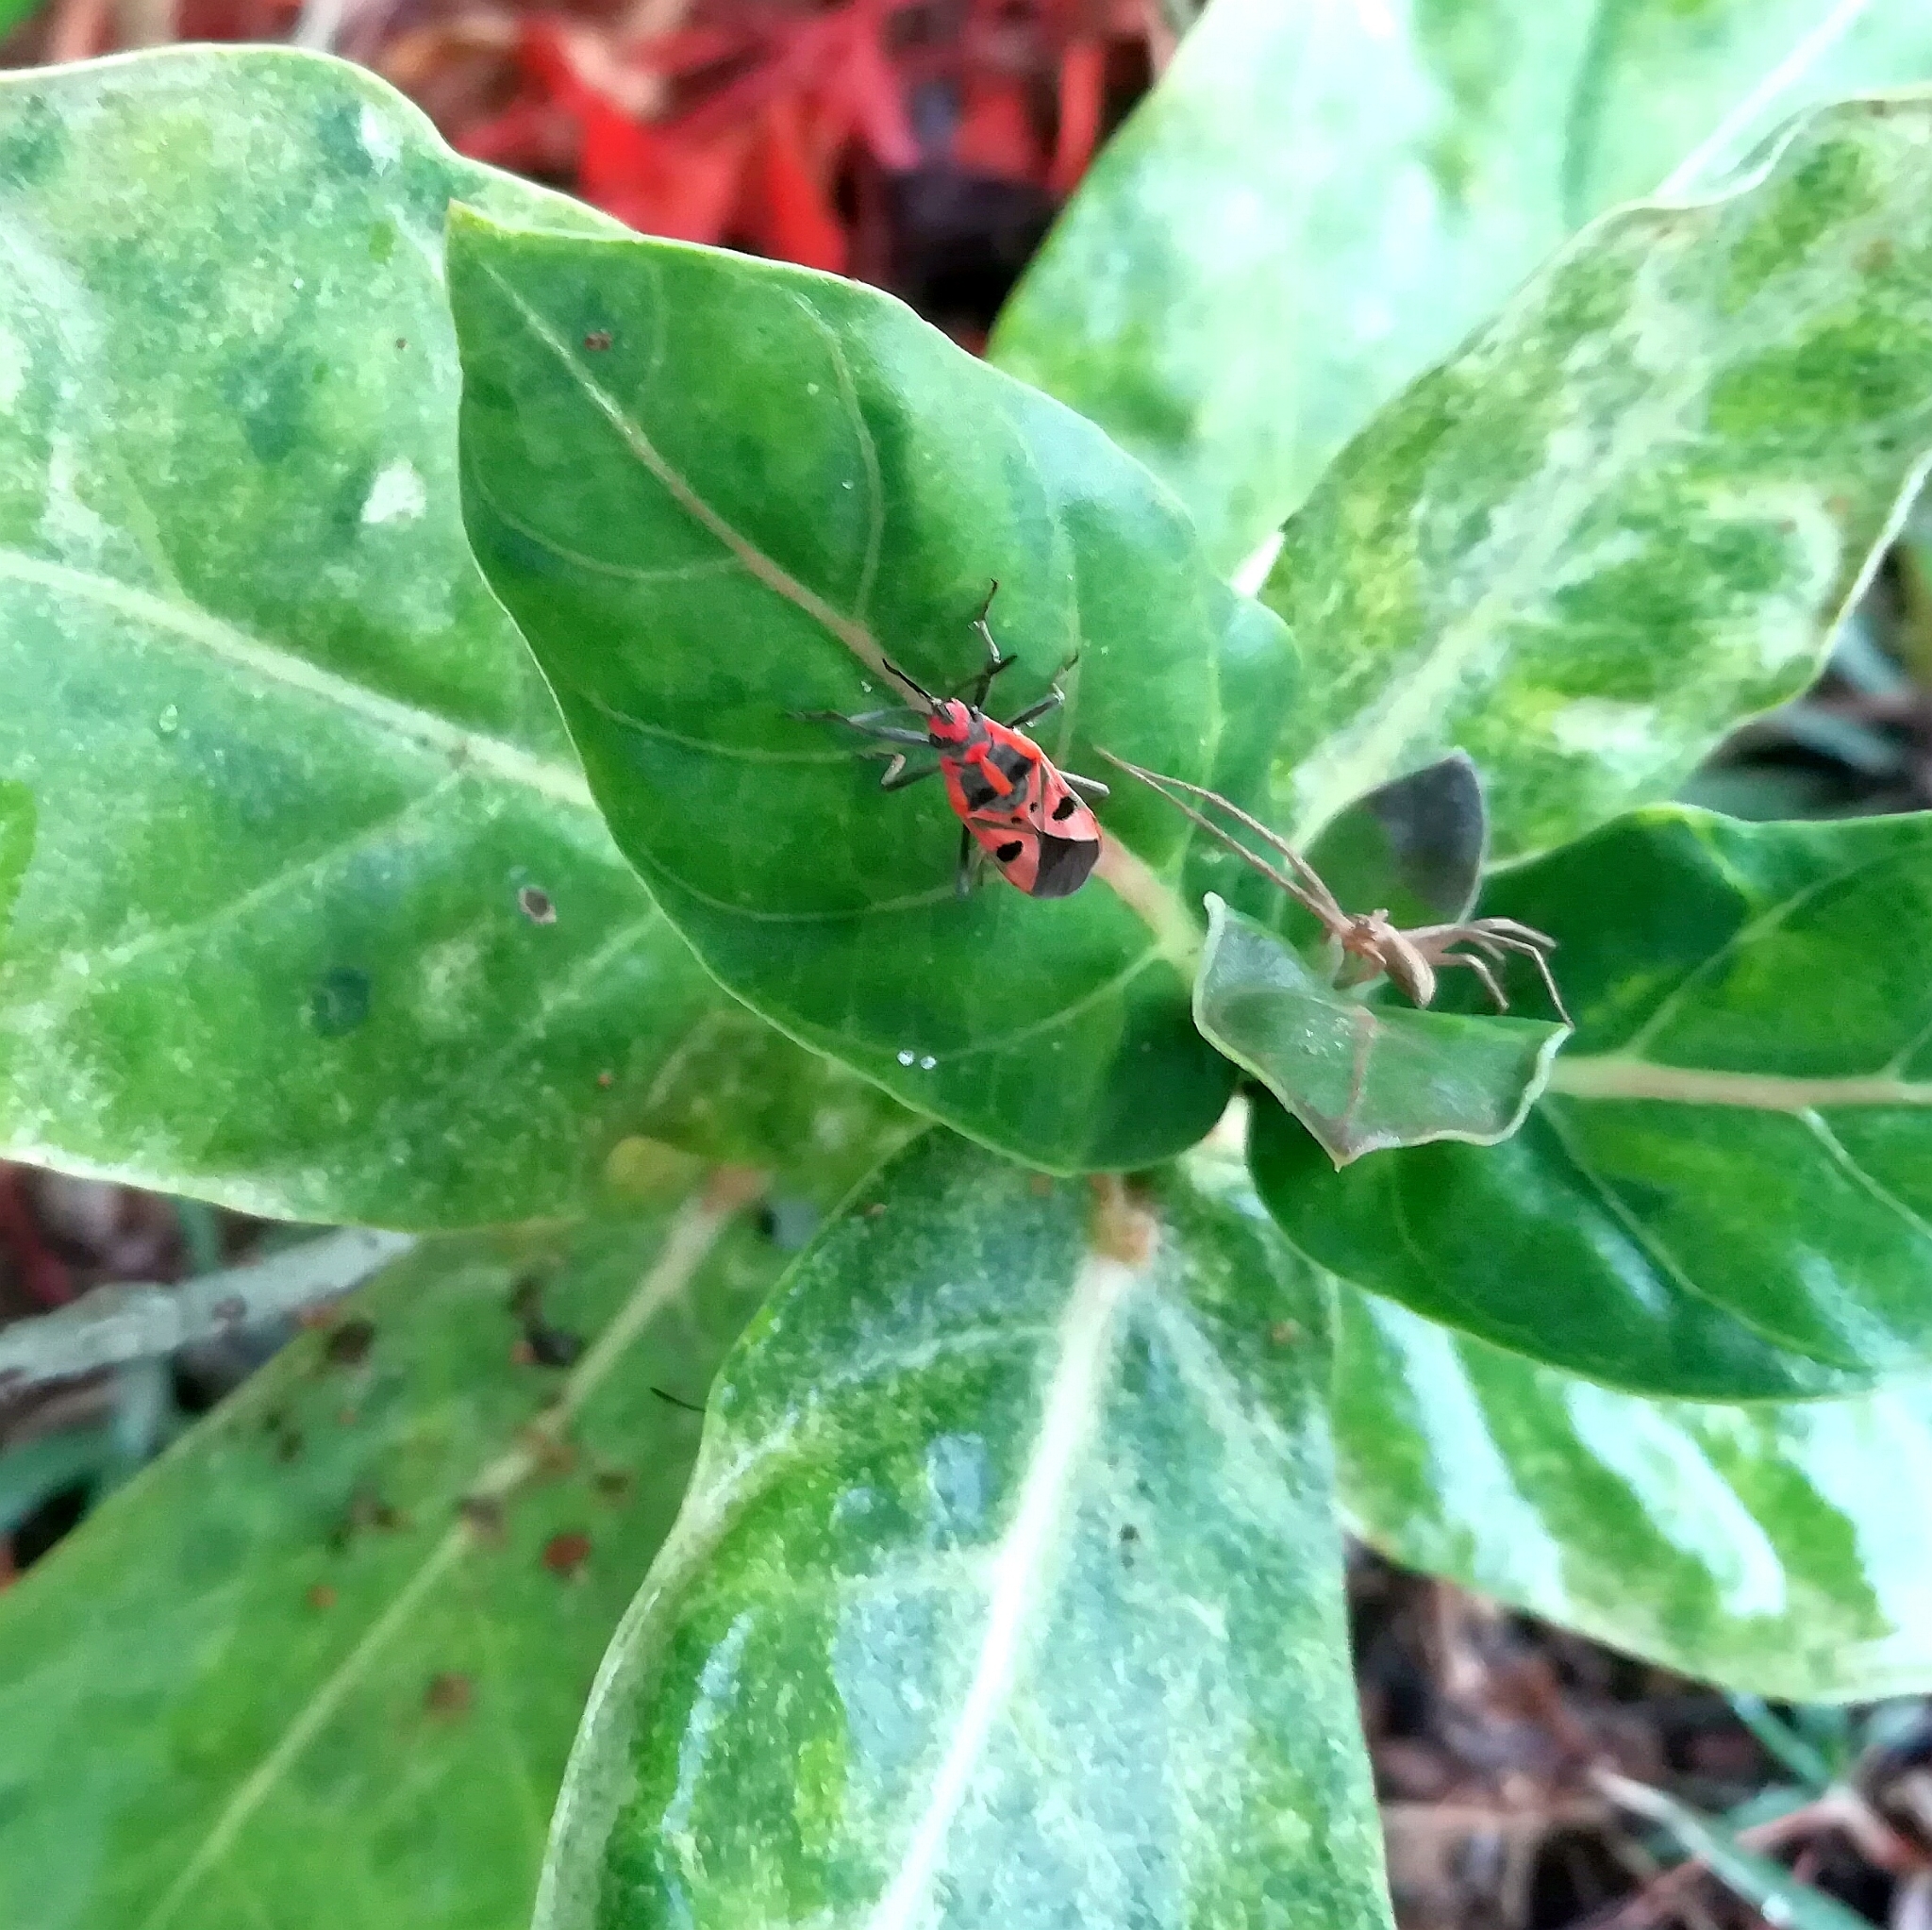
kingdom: Animalia
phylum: Arthropoda
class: Insecta
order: Hemiptera
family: Lygaeidae
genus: Spilostethus
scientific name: Spilostethus hospes
